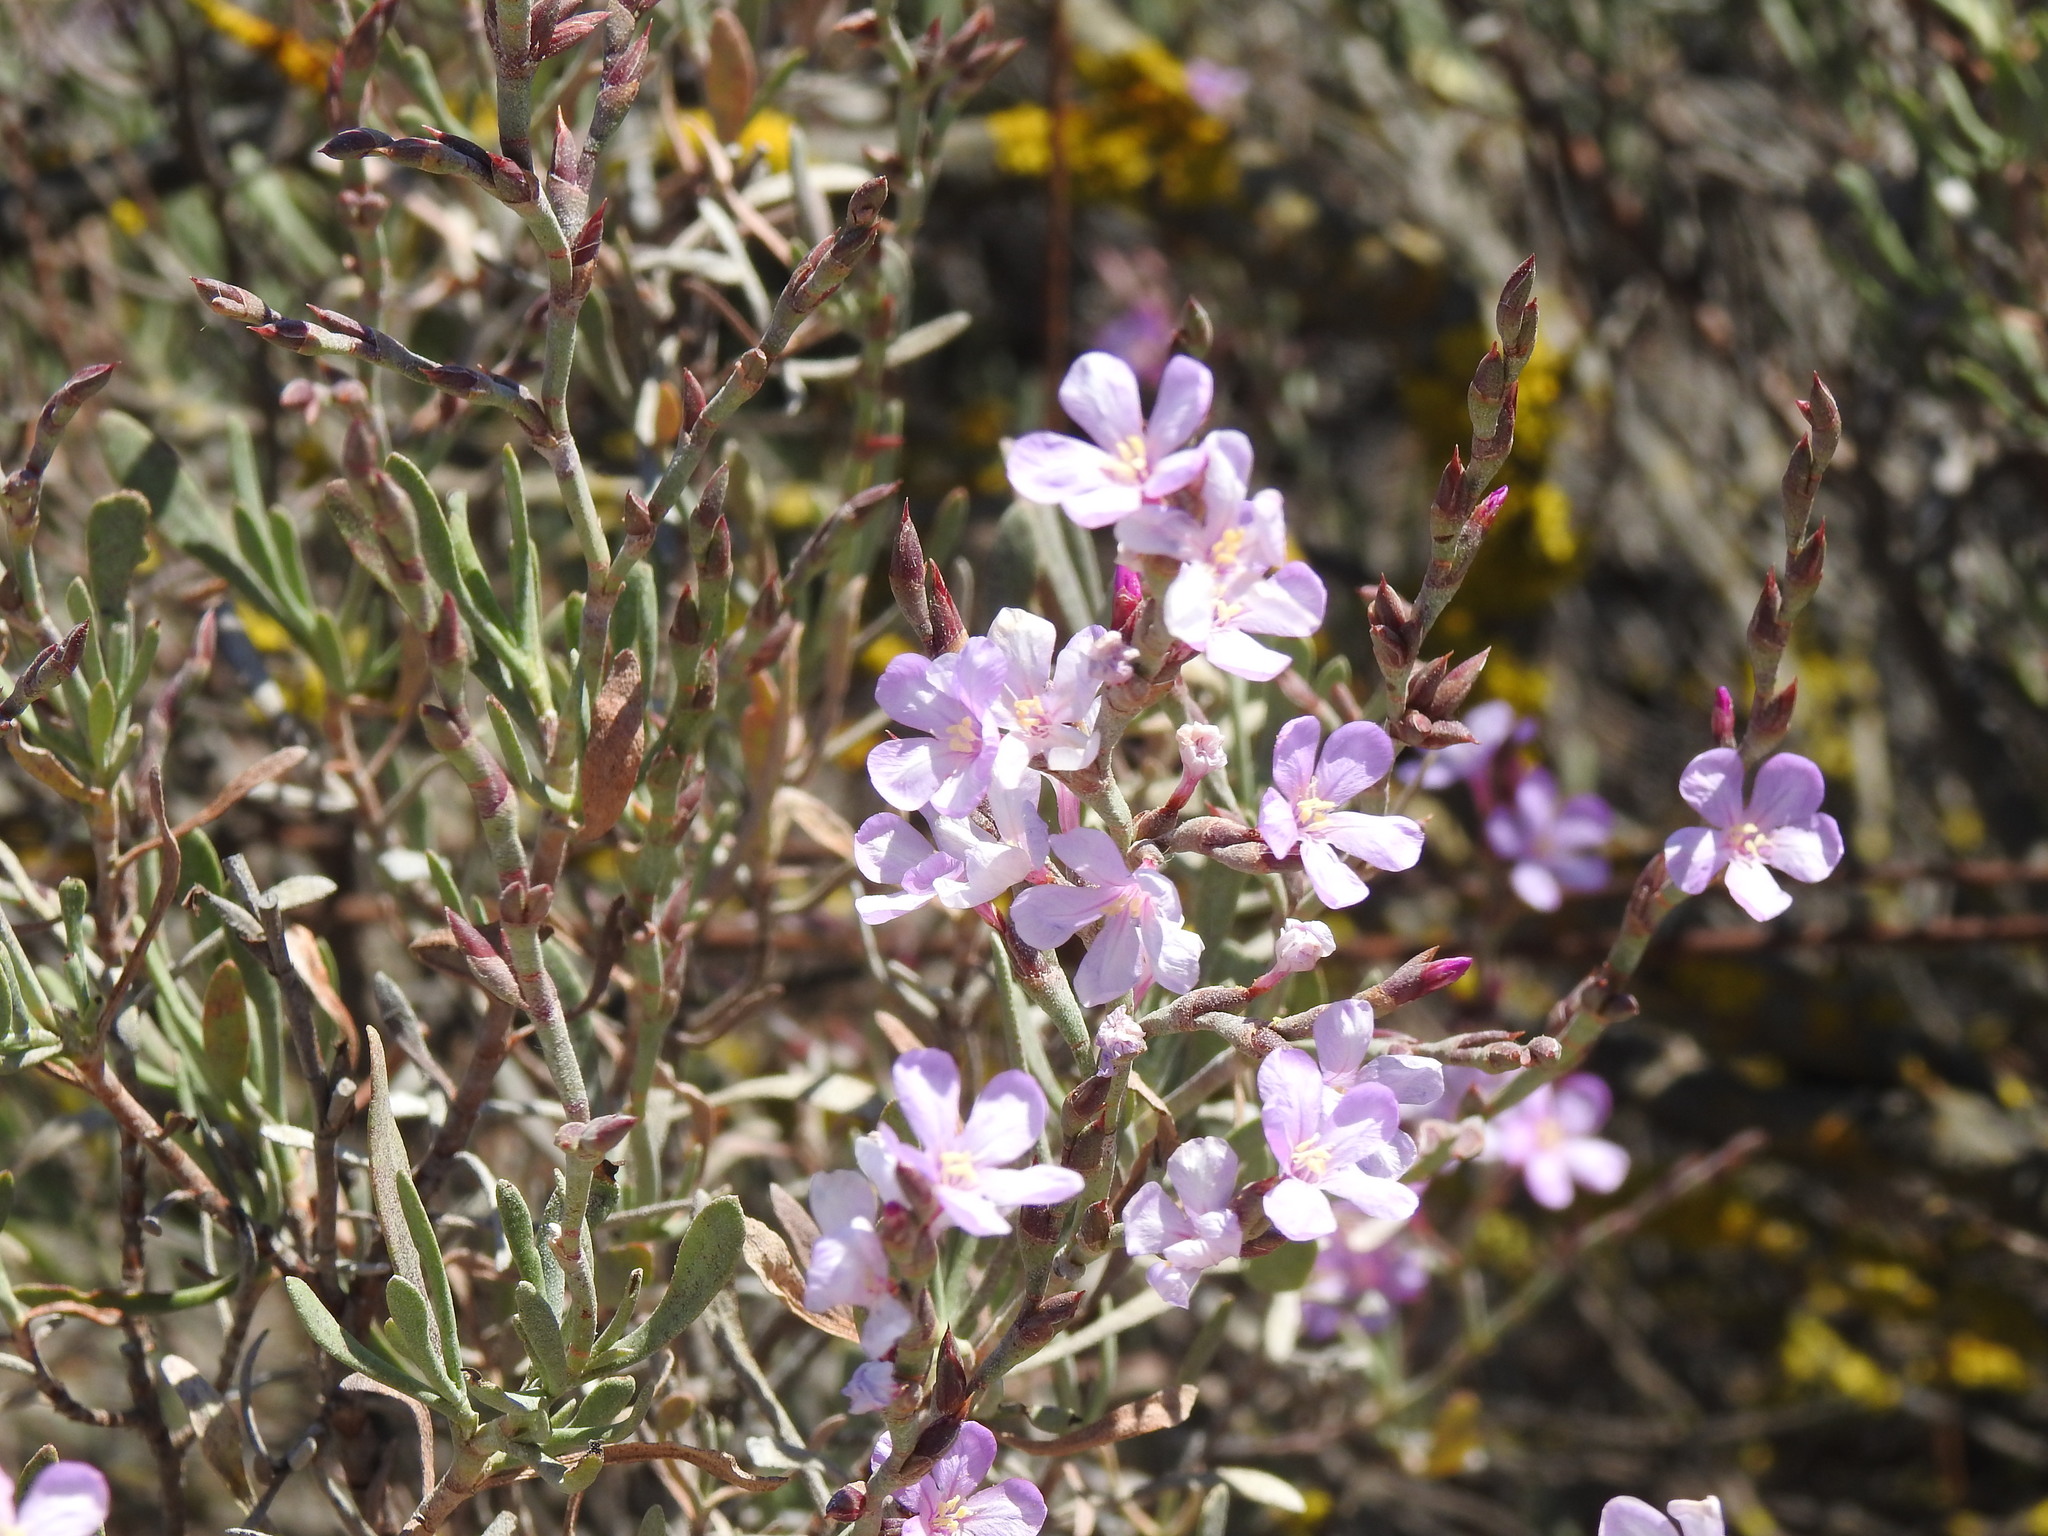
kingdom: Plantae
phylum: Tracheophyta
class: Magnoliopsida
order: Caryophyllales
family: Plumbaginaceae
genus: Limoniastrum
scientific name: Limoniastrum monopetalum
